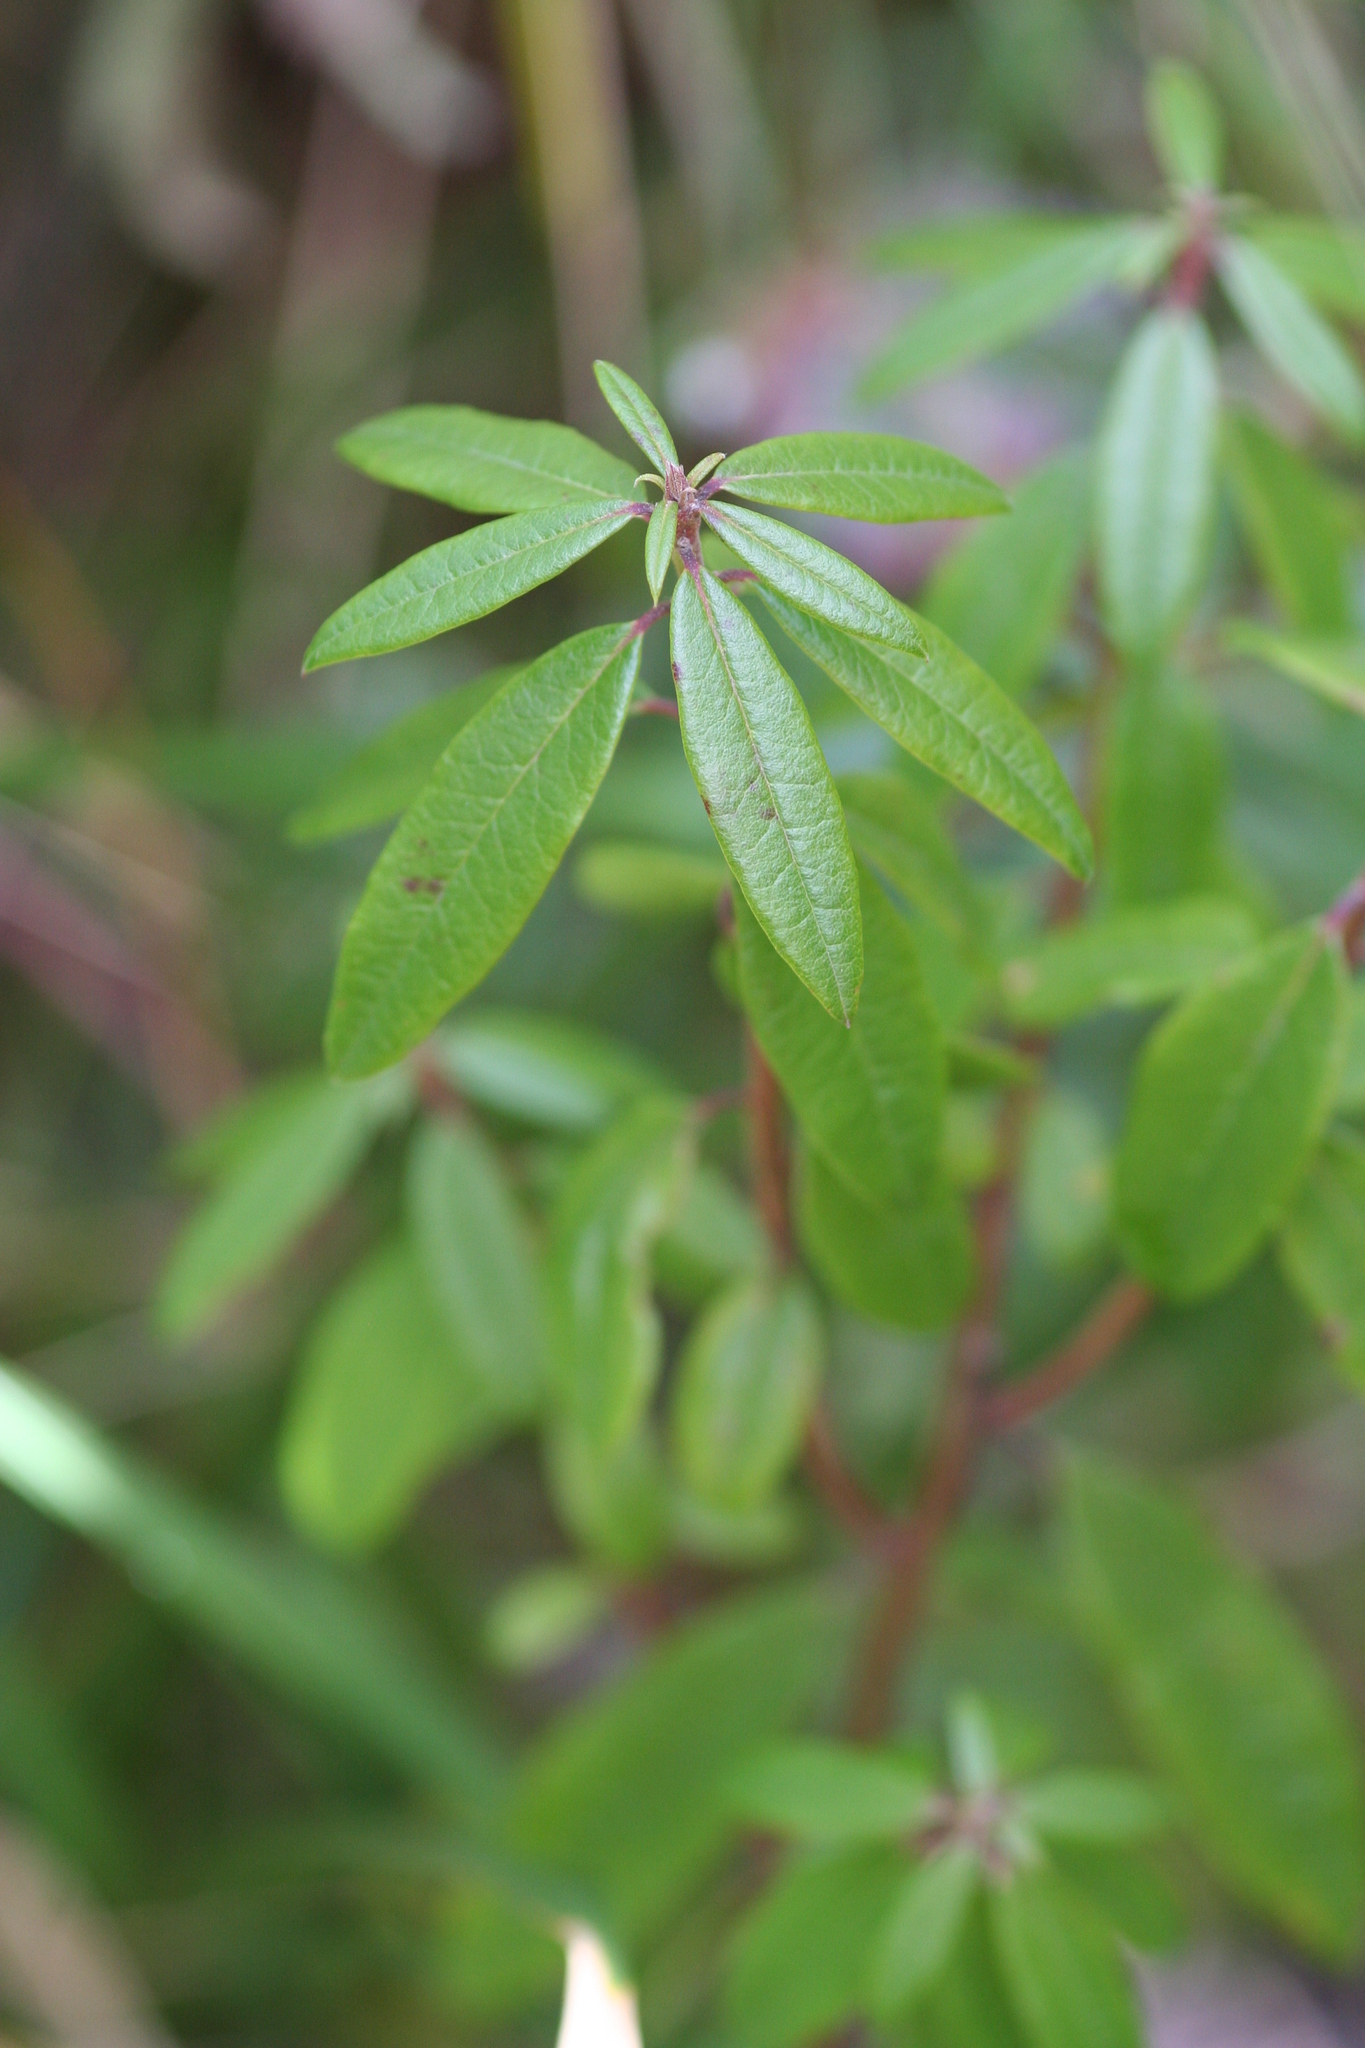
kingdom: Plantae
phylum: Tracheophyta
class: Magnoliopsida
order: Ericales
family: Ericaceae
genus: Rhododendron
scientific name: Rhododendron columbianum
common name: Western labrador tea
